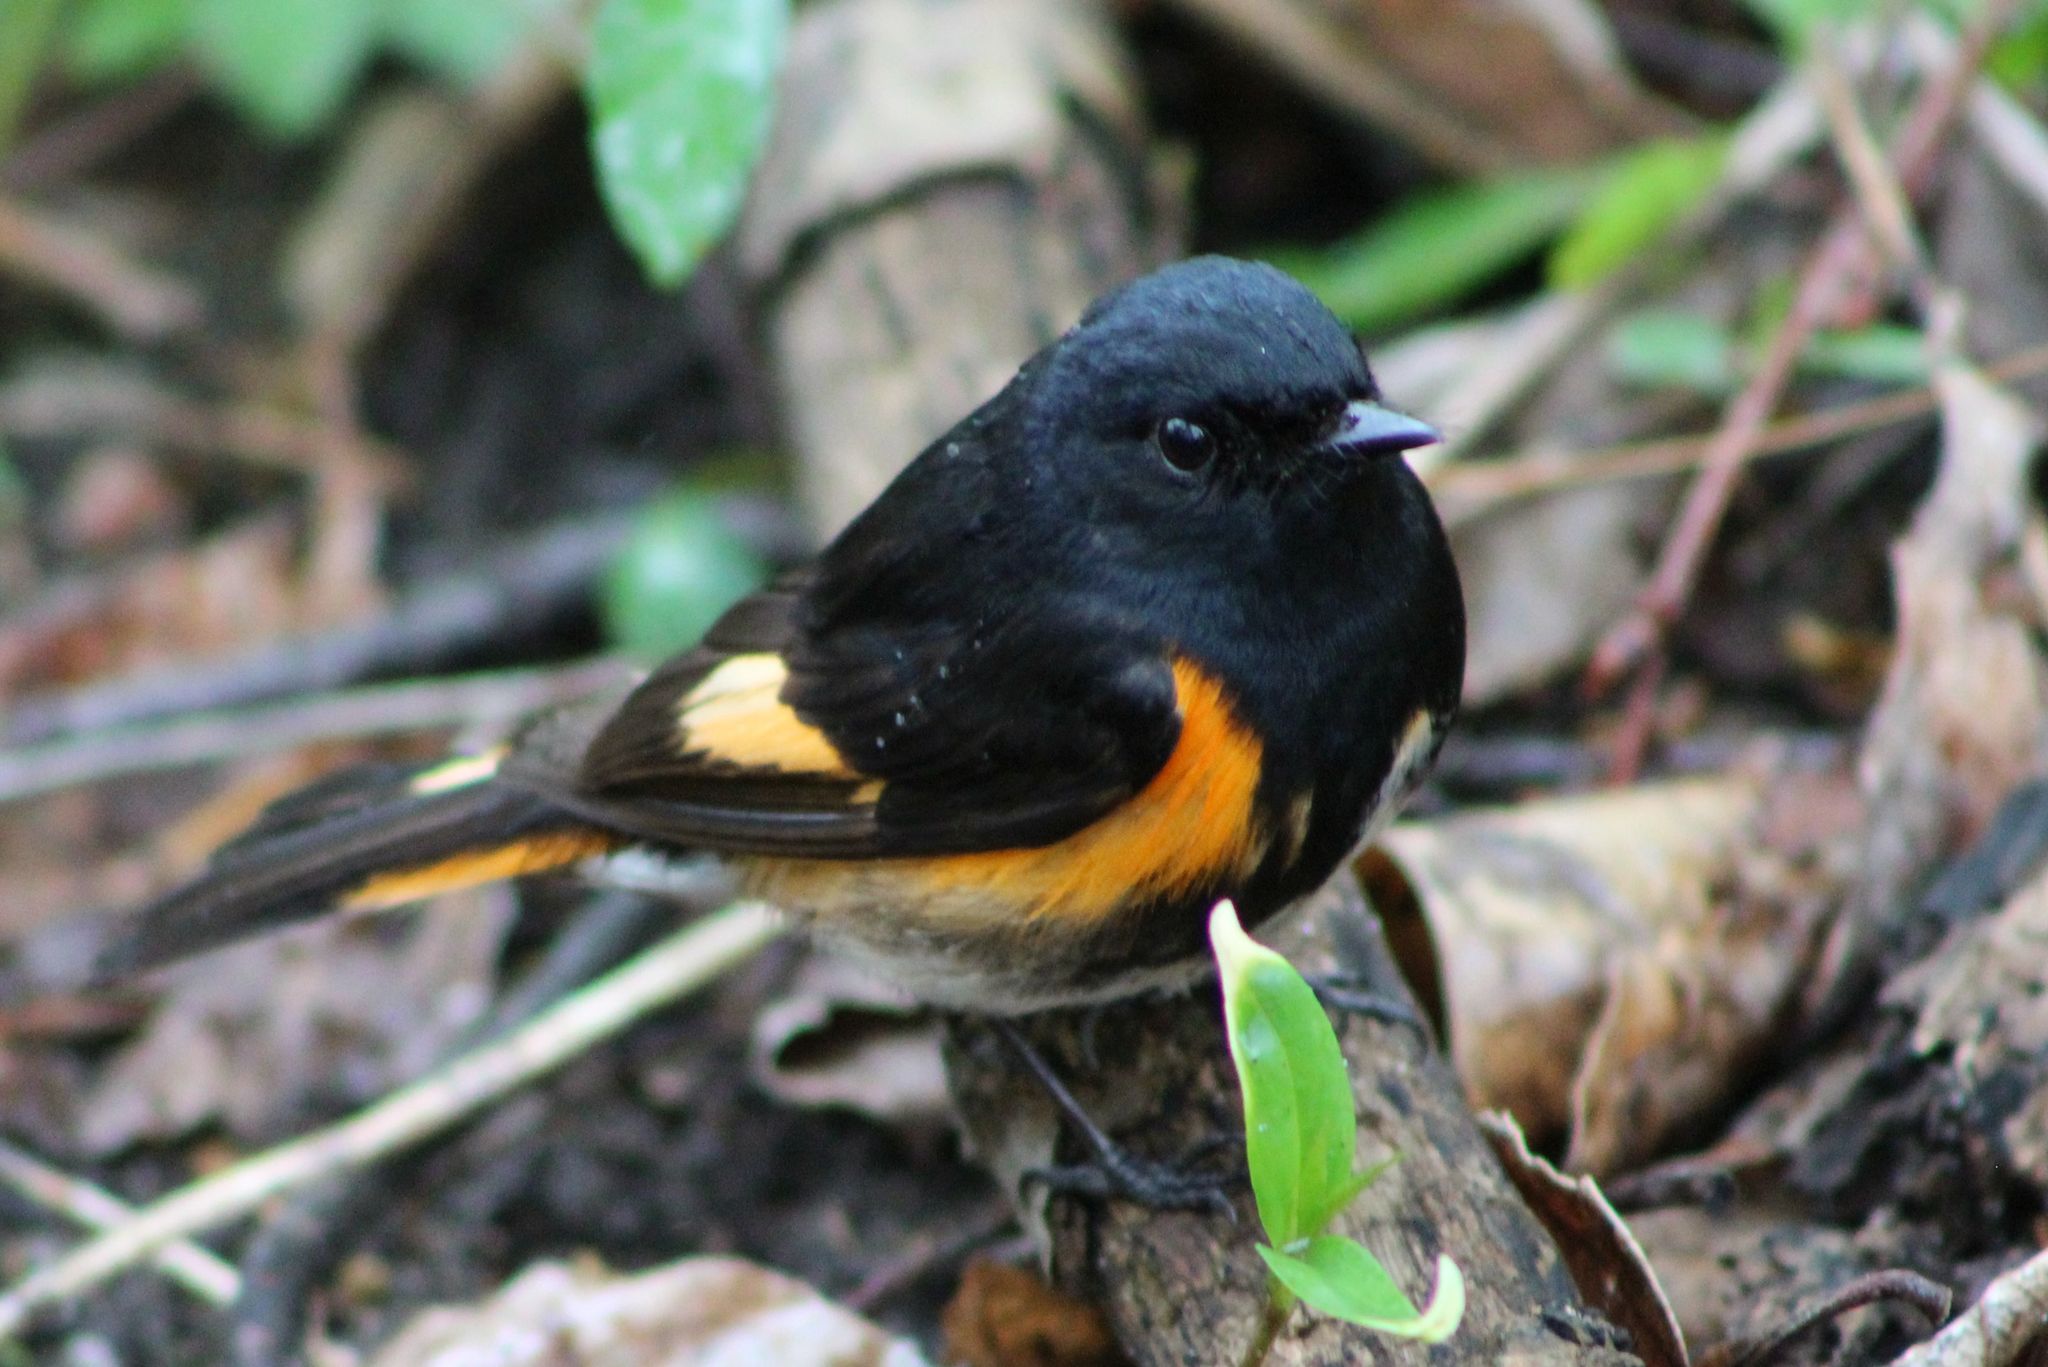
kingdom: Animalia
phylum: Chordata
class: Aves
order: Passeriformes
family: Parulidae
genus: Setophaga
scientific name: Setophaga ruticilla
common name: American redstart
